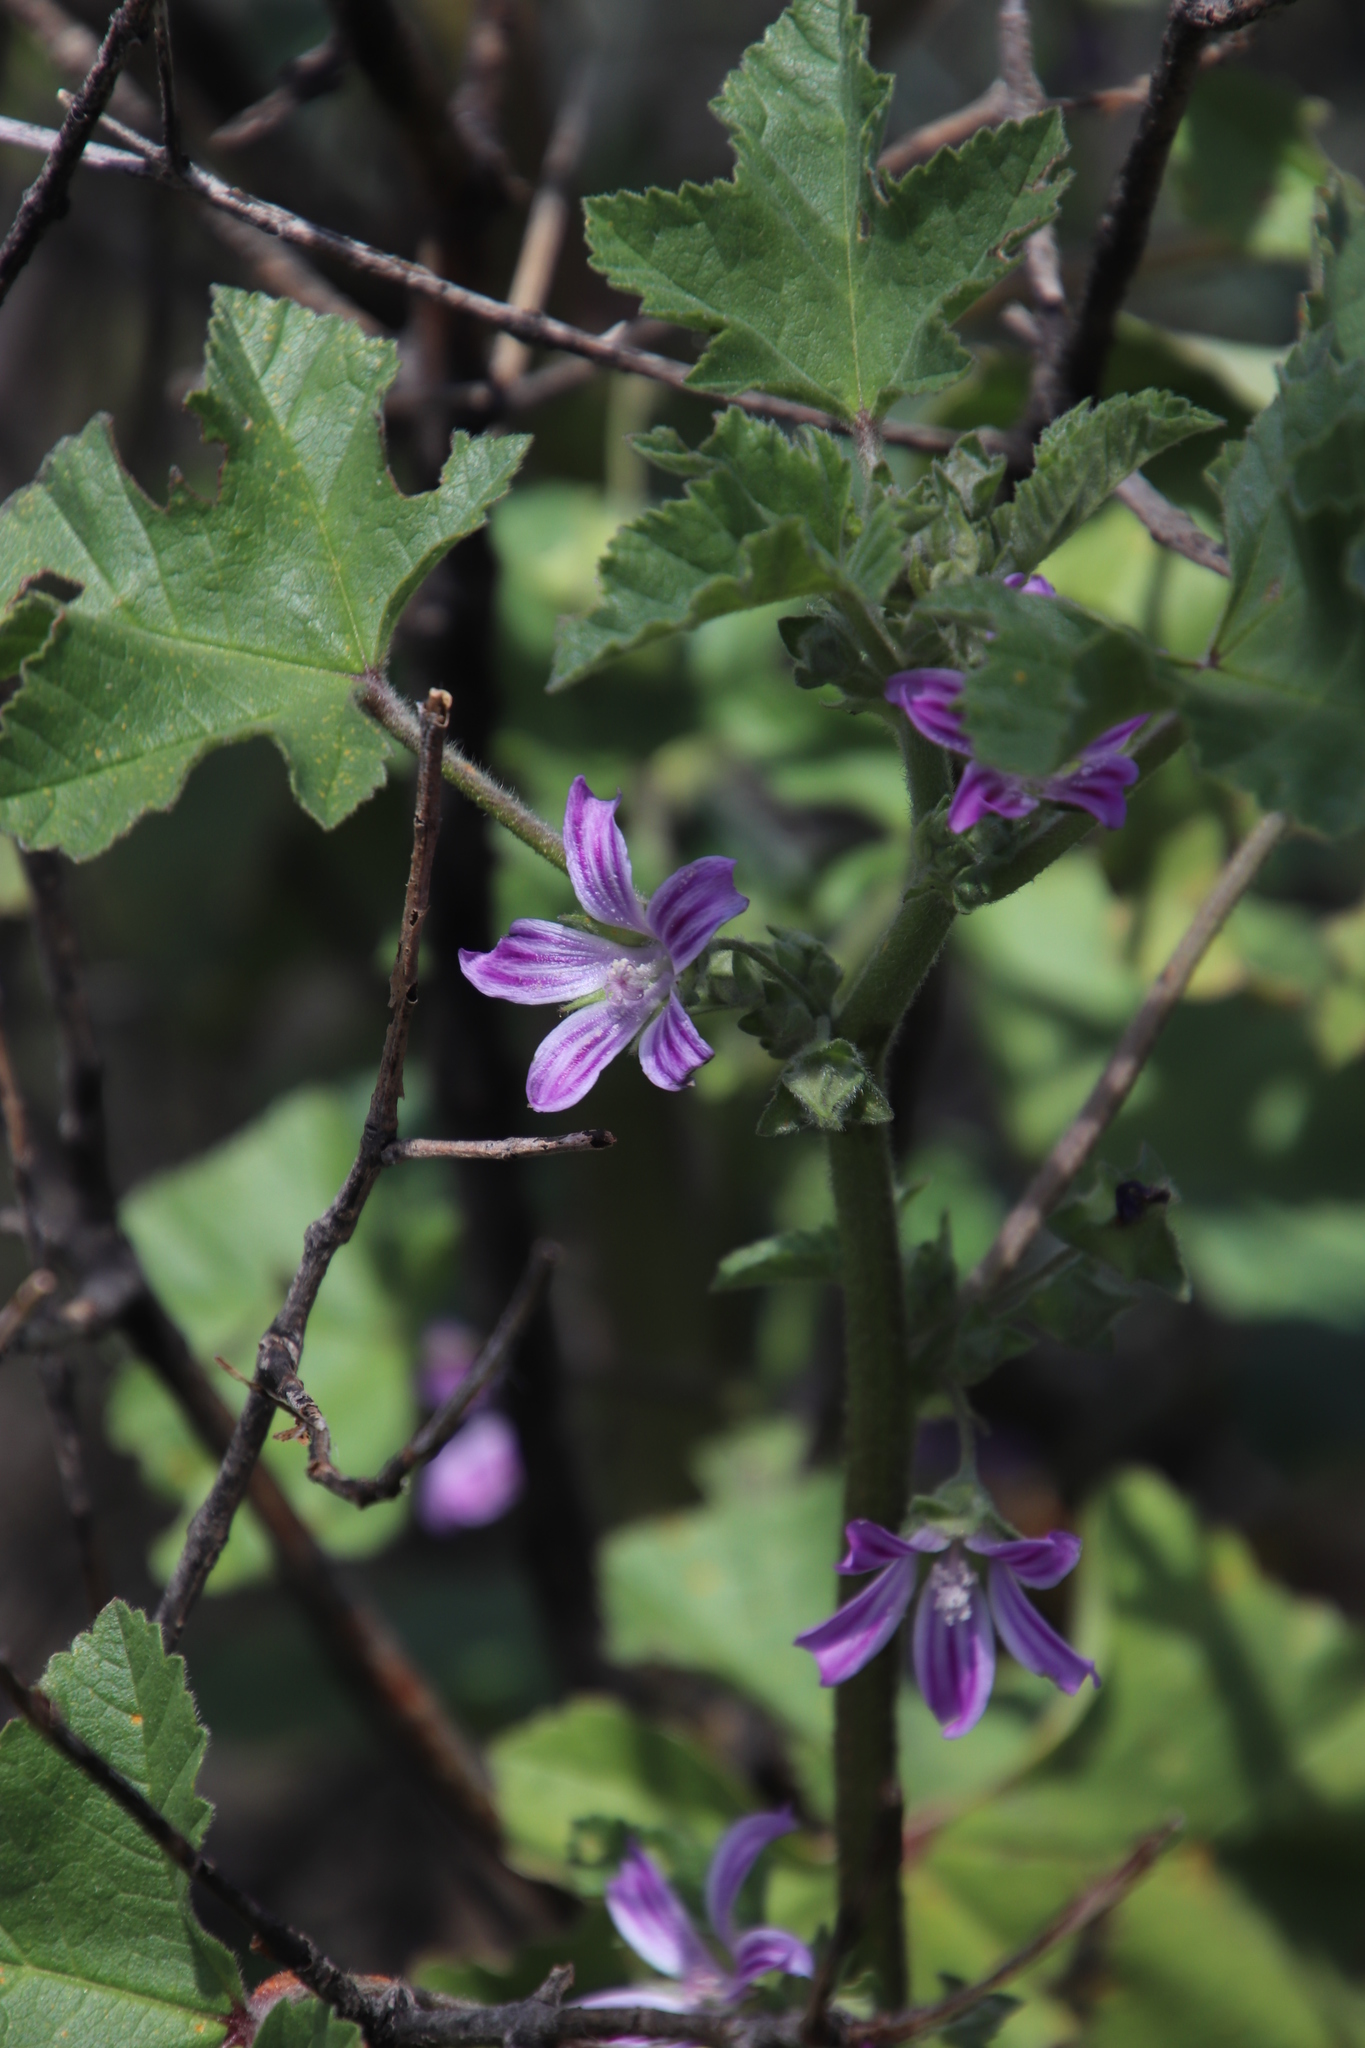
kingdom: Plantae
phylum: Tracheophyta
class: Magnoliopsida
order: Malvales
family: Malvaceae
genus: Malva
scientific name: Malva multiflora
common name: Cheeseweed
